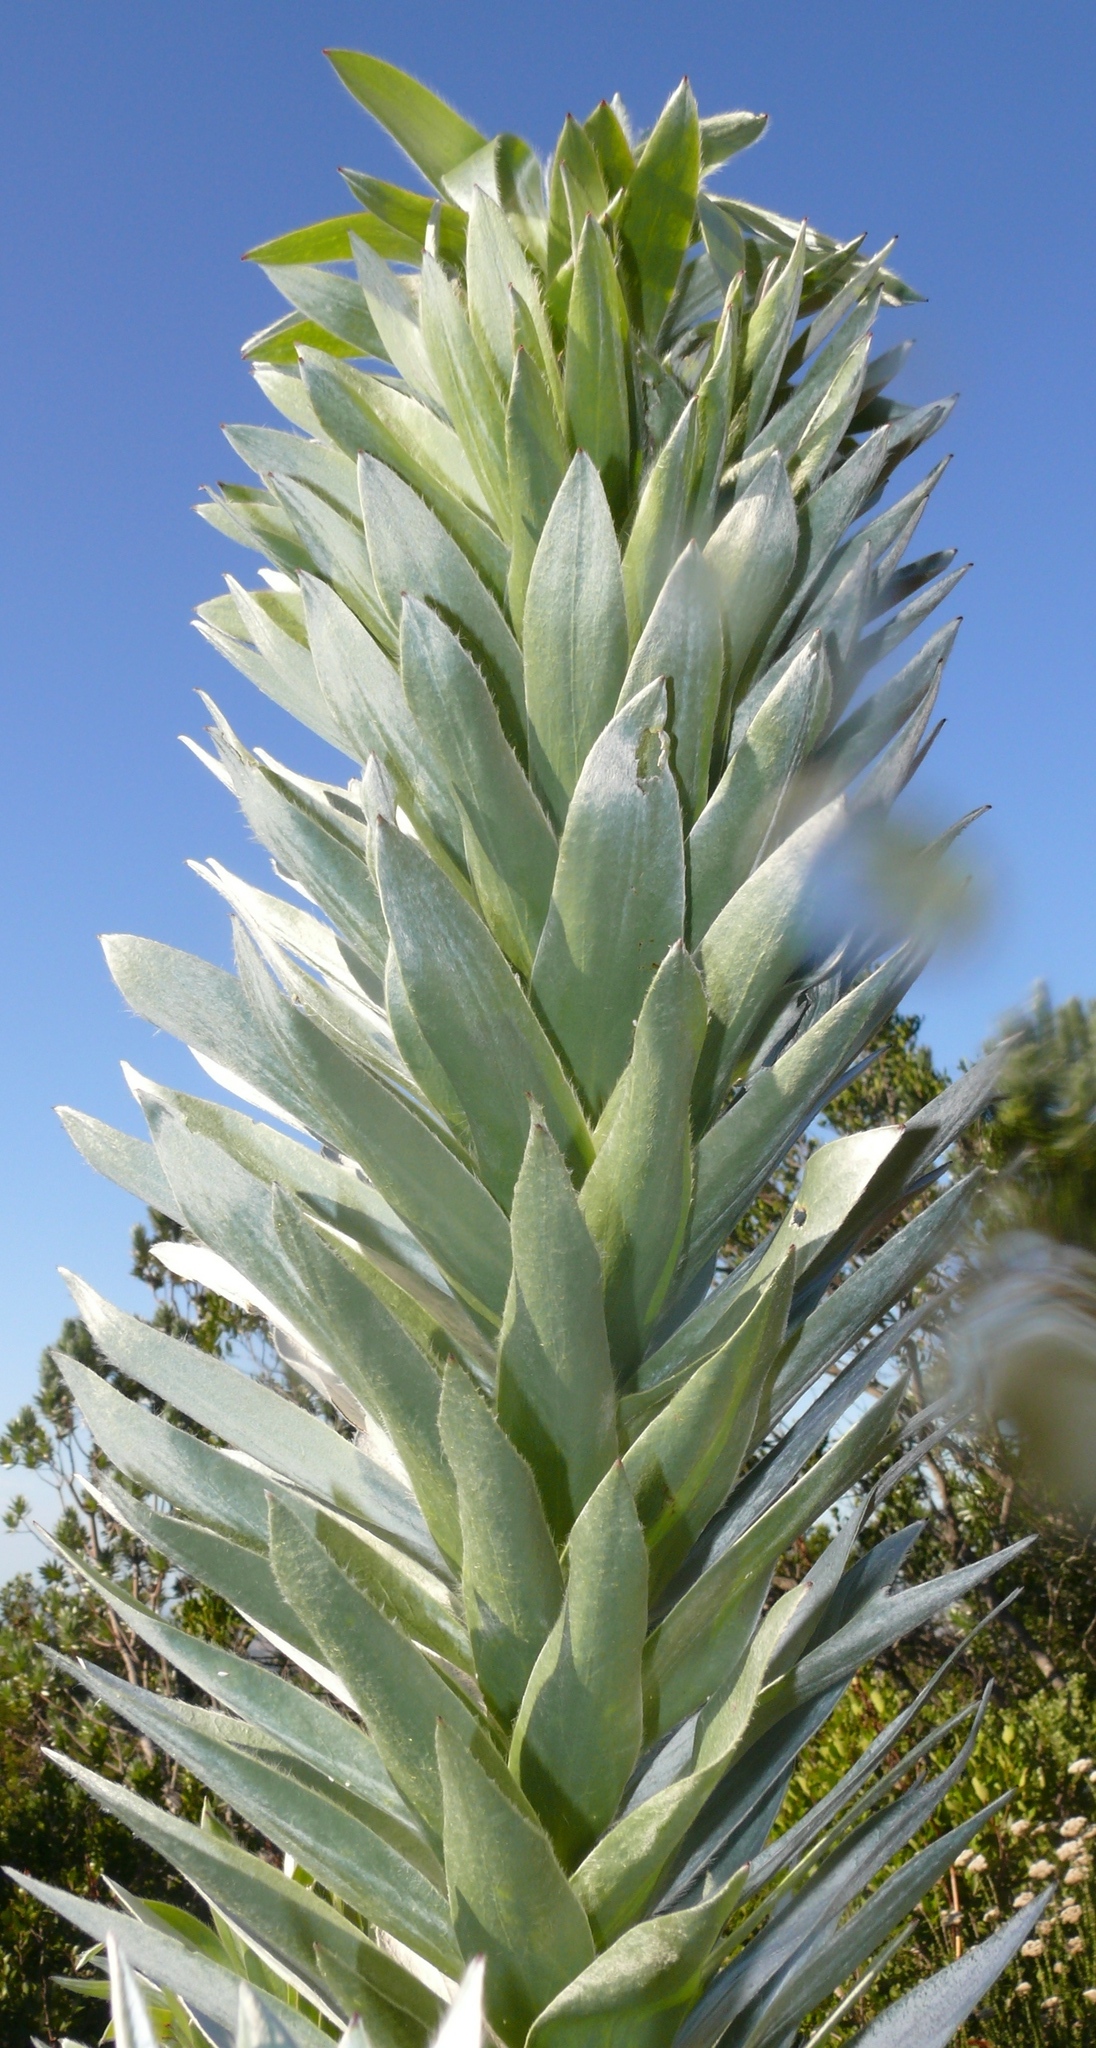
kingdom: Plantae
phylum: Tracheophyta
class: Magnoliopsida
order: Proteales
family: Proteaceae
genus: Leucadendron
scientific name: Leucadendron argenteum
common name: Cape silver tree
